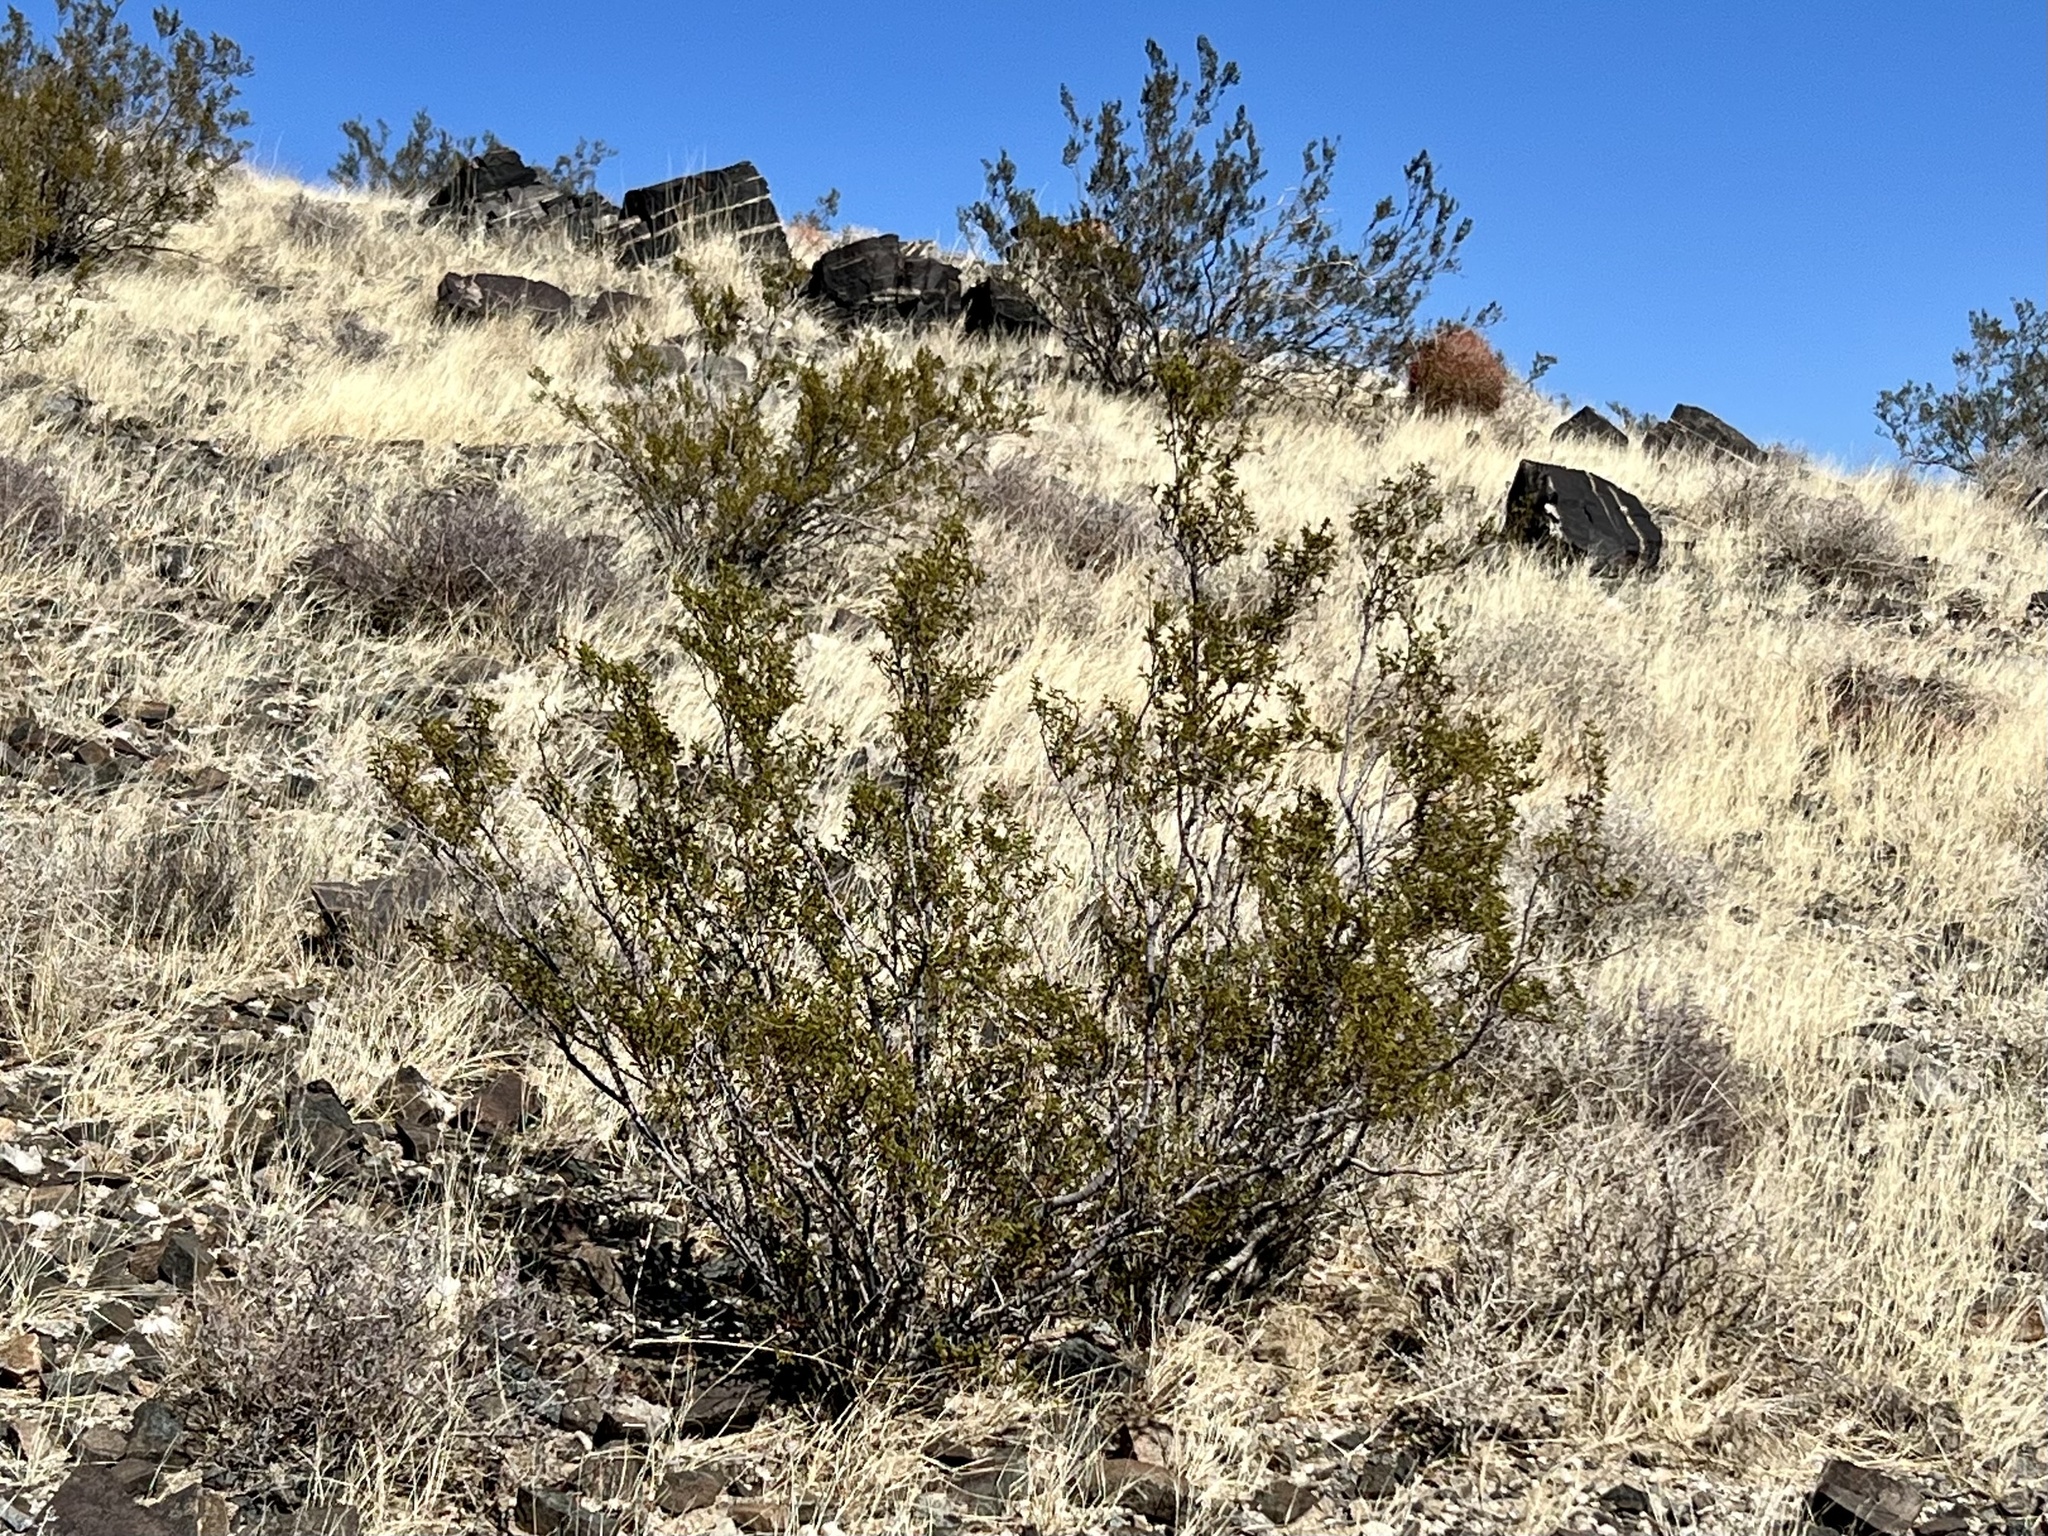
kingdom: Plantae
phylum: Tracheophyta
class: Magnoliopsida
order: Zygophyllales
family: Zygophyllaceae
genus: Larrea
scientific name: Larrea tridentata
